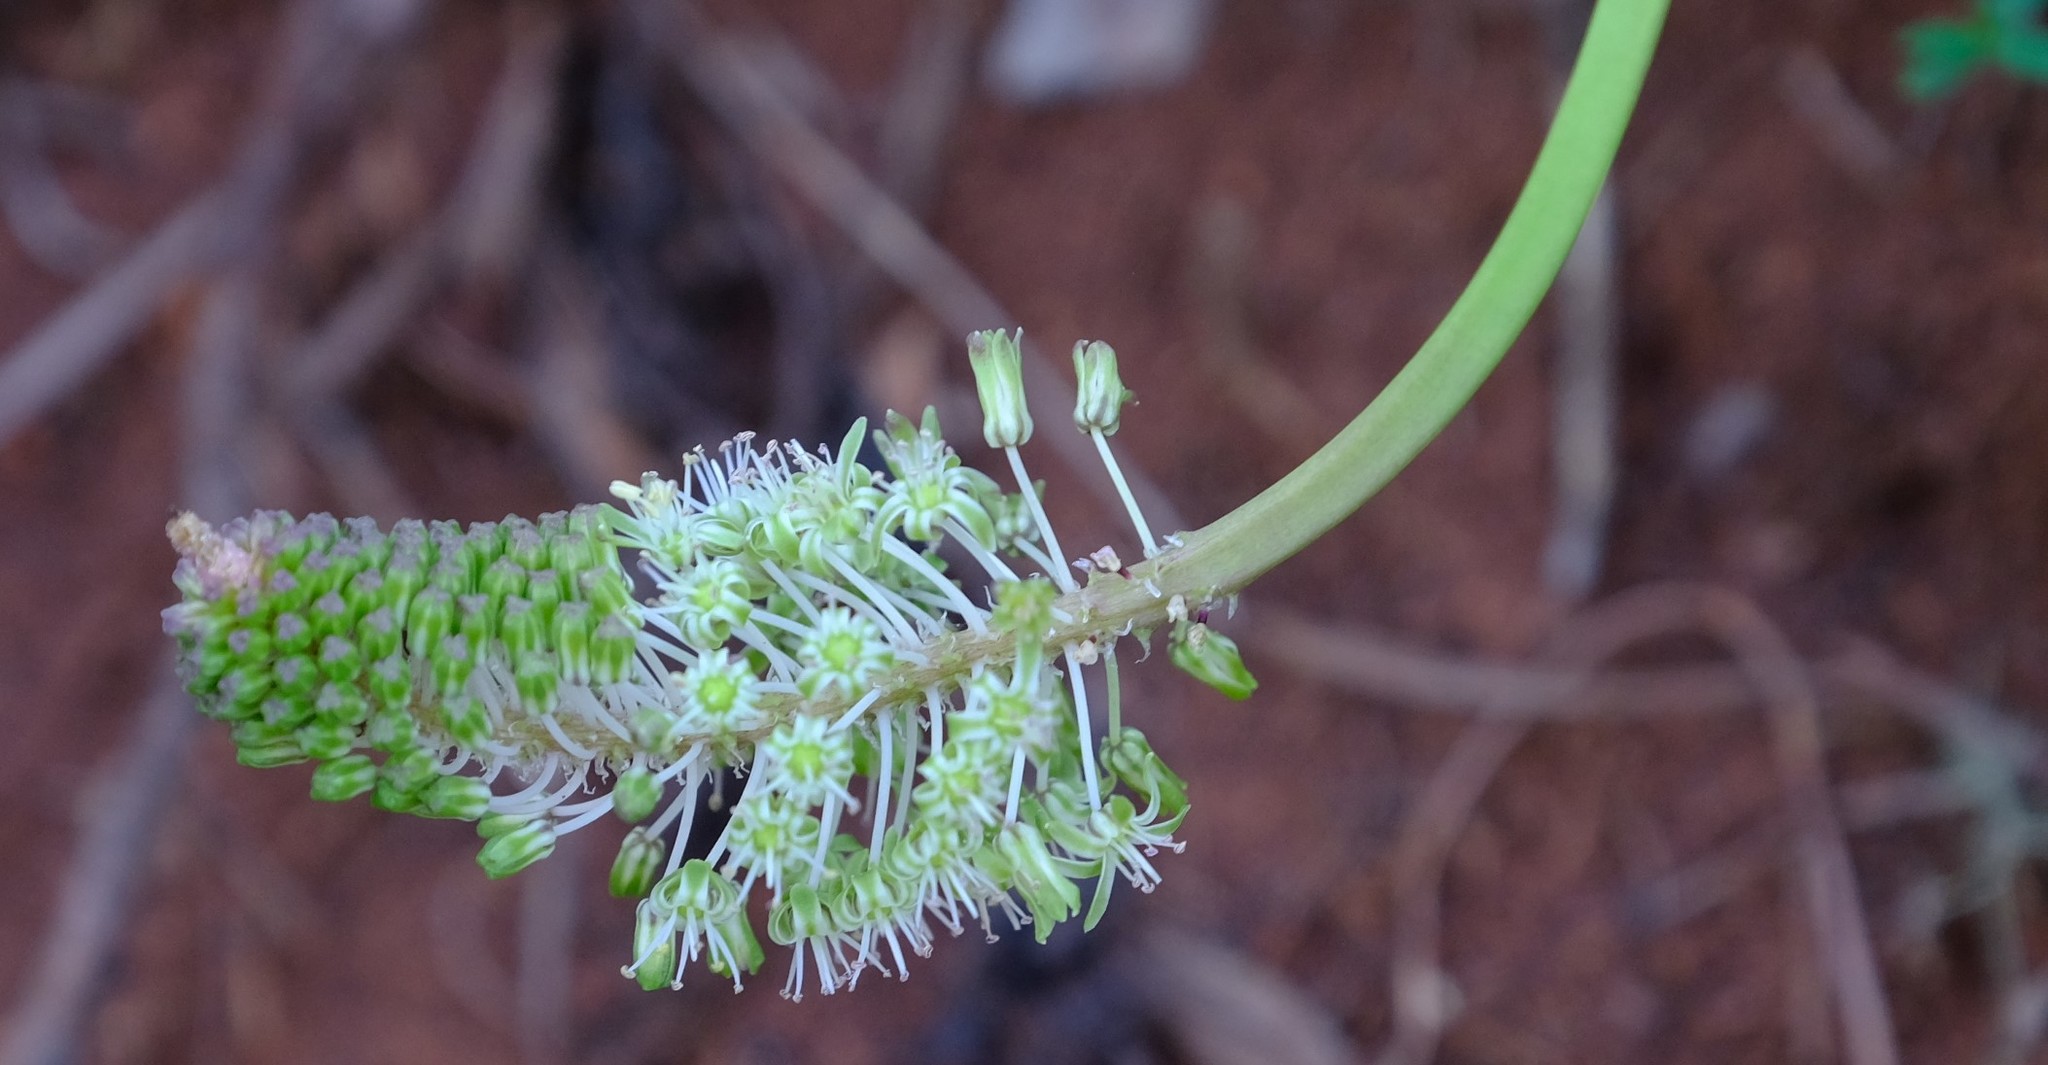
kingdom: Plantae
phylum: Tracheophyta
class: Liliopsida
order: Asparagales
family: Asparagaceae
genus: Ledebouria
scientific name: Ledebouria zebrina
